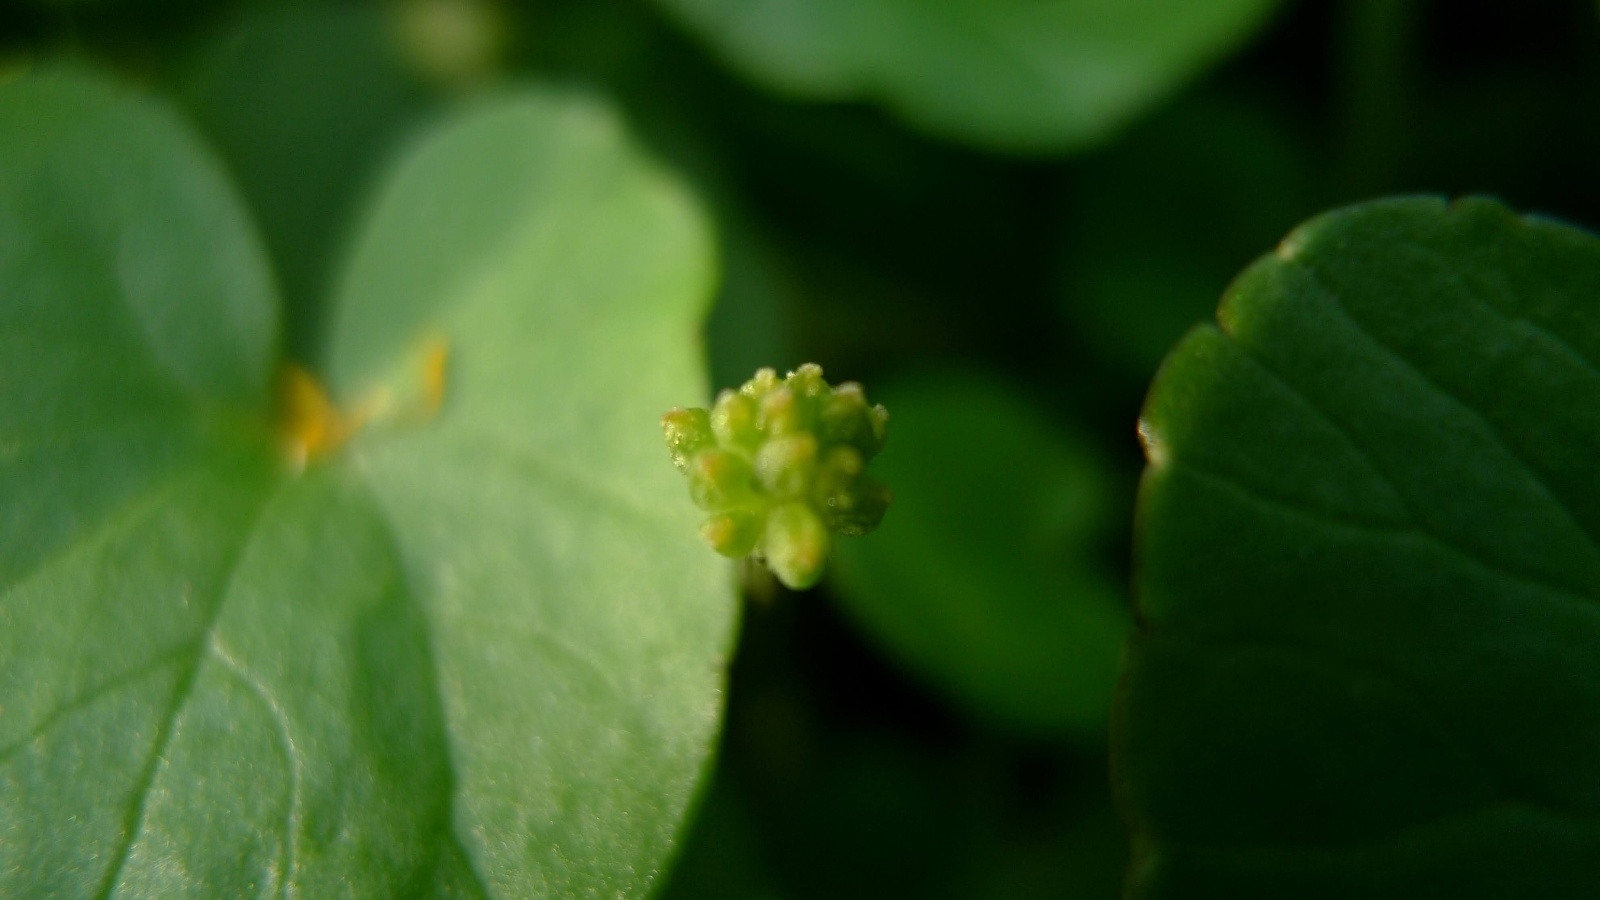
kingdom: Plantae
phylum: Tracheophyta
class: Magnoliopsida
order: Ranunculales
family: Ranunculaceae
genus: Ficaria
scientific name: Ficaria verna
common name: Lesser celandine
